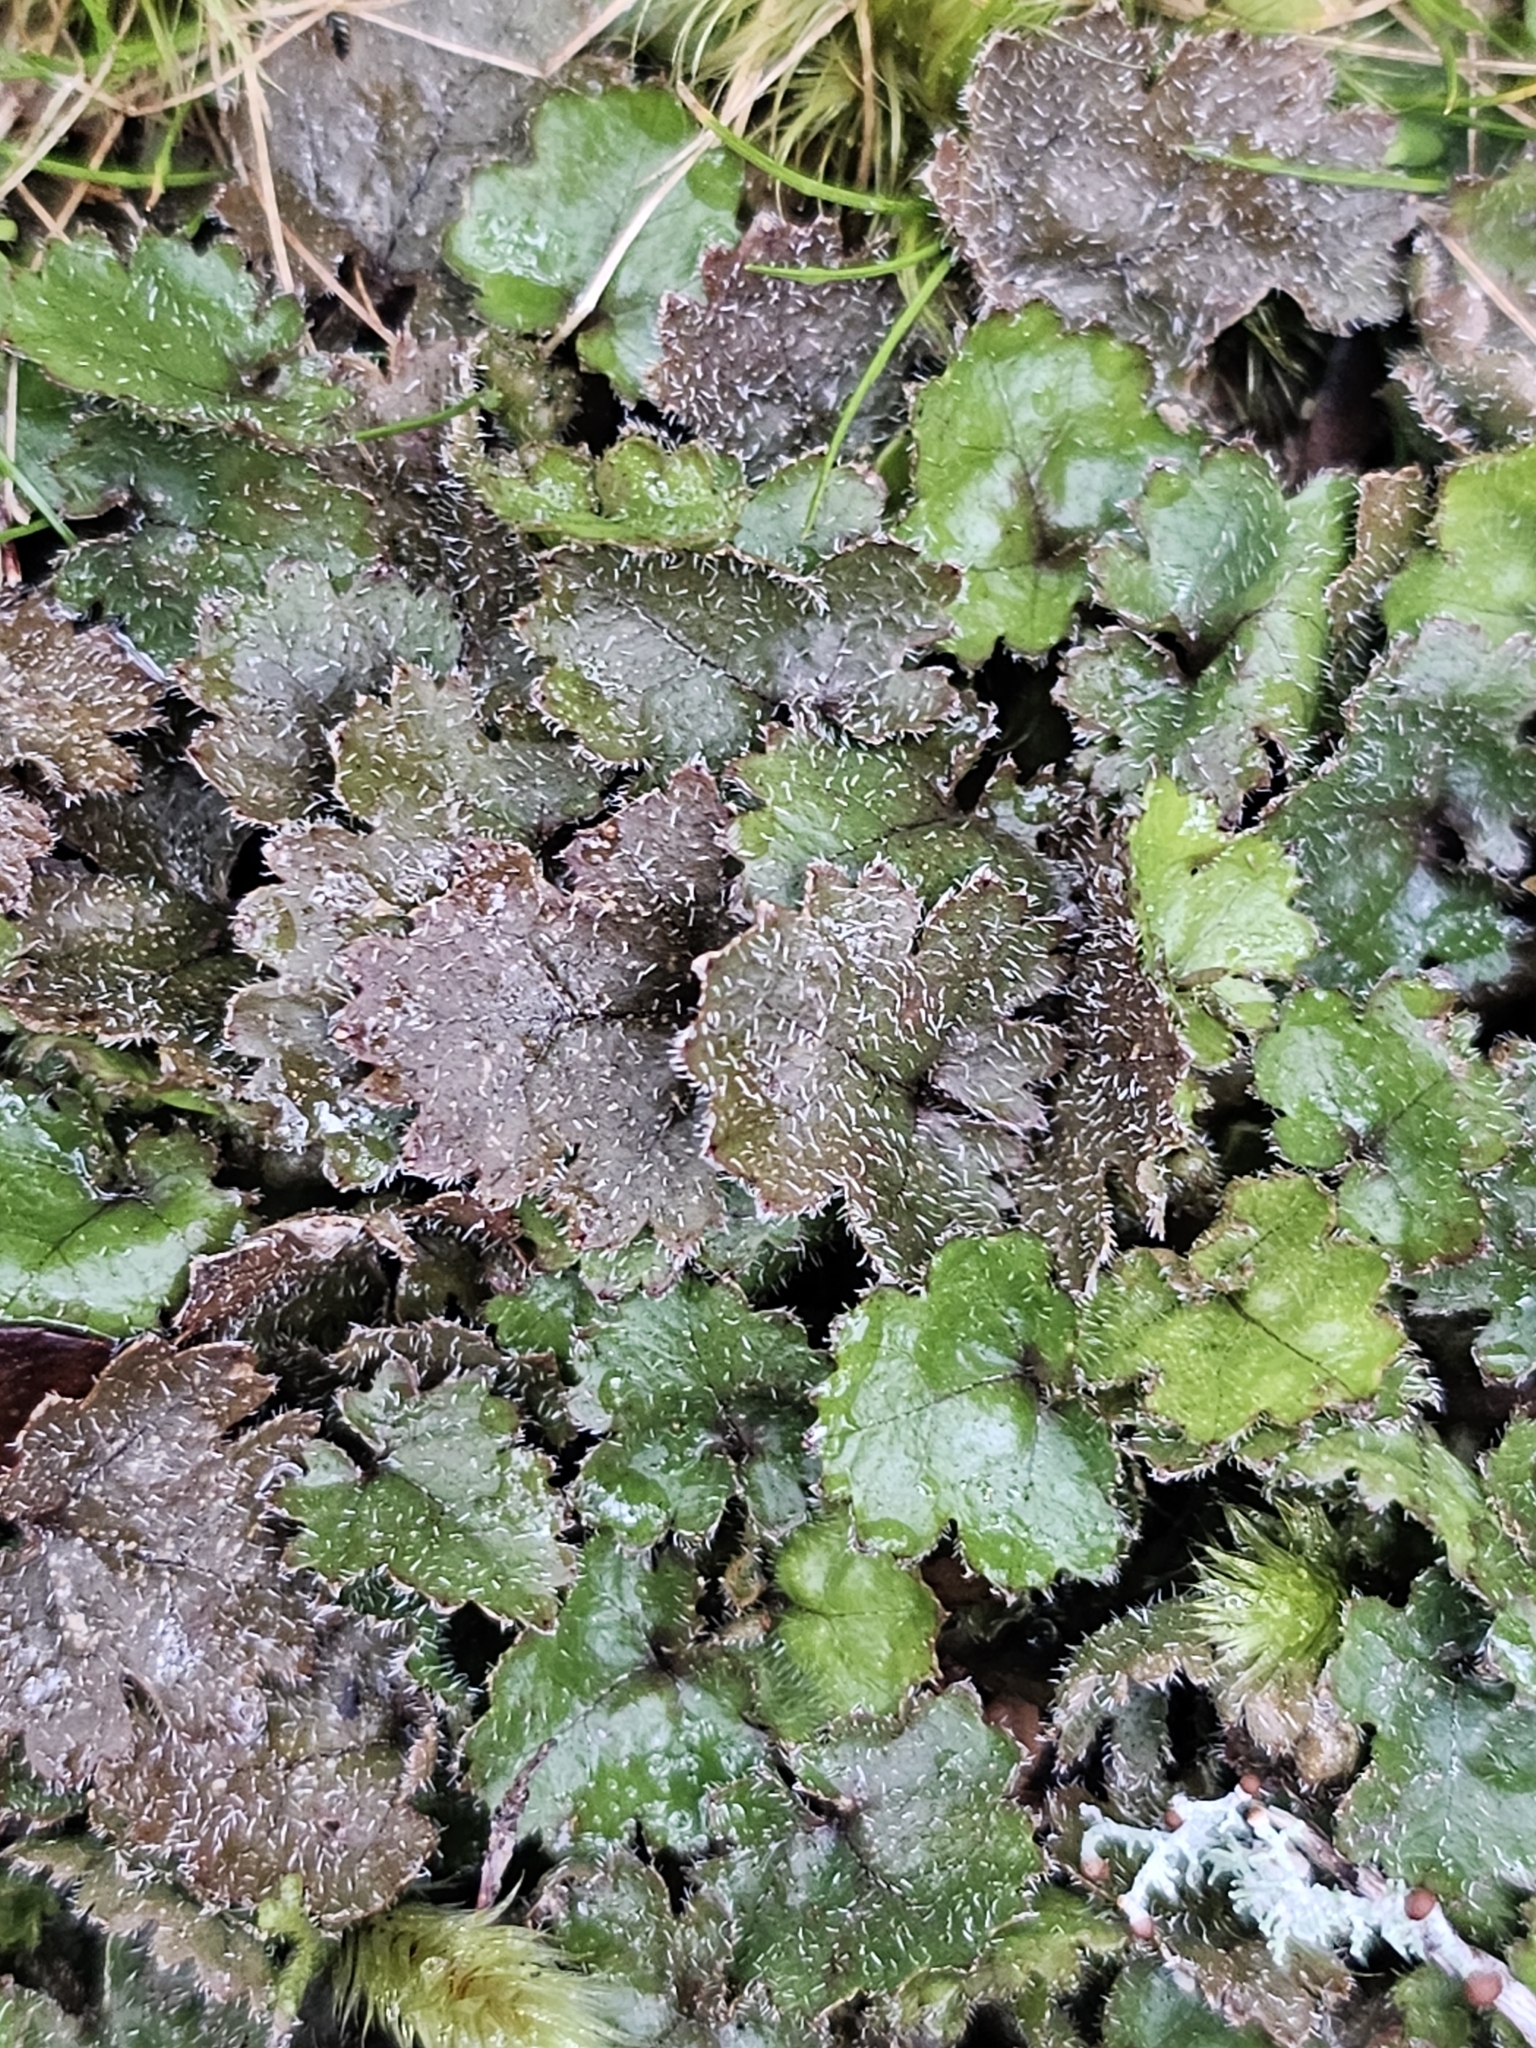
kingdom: Plantae
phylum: Tracheophyta
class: Magnoliopsida
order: Gunnerales
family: Gunneraceae
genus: Gunnera
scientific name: Gunnera monoica
